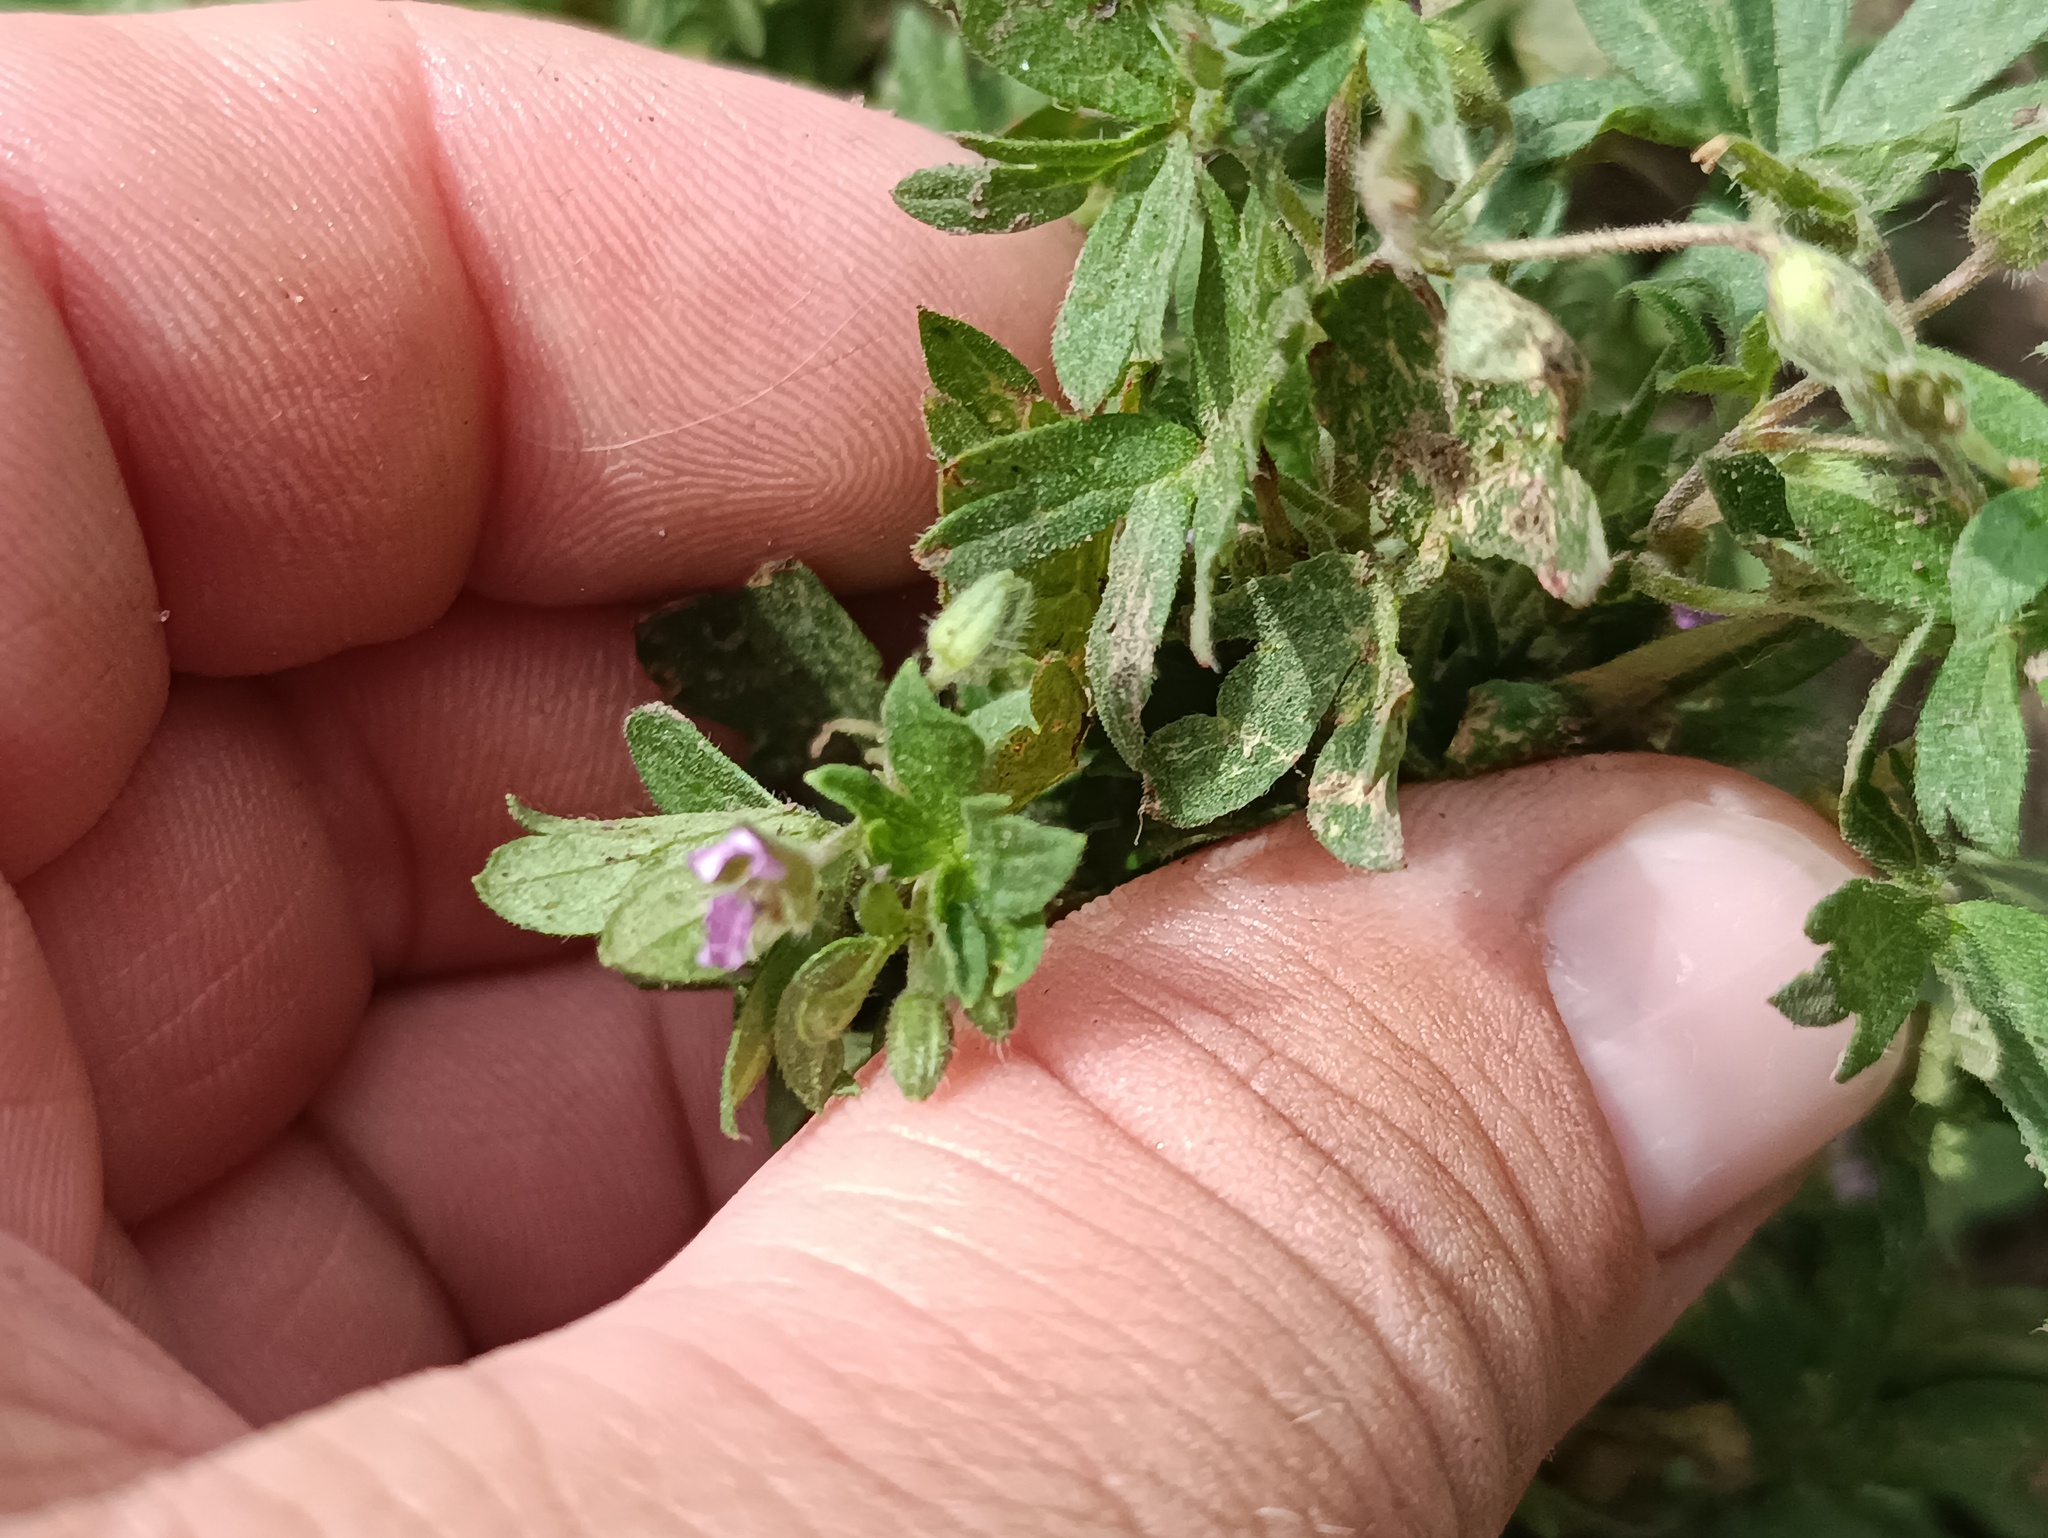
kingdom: Plantae
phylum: Tracheophyta
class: Magnoliopsida
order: Geraniales
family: Geraniaceae
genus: Geranium
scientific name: Geranium pusillum
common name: Small geranium
